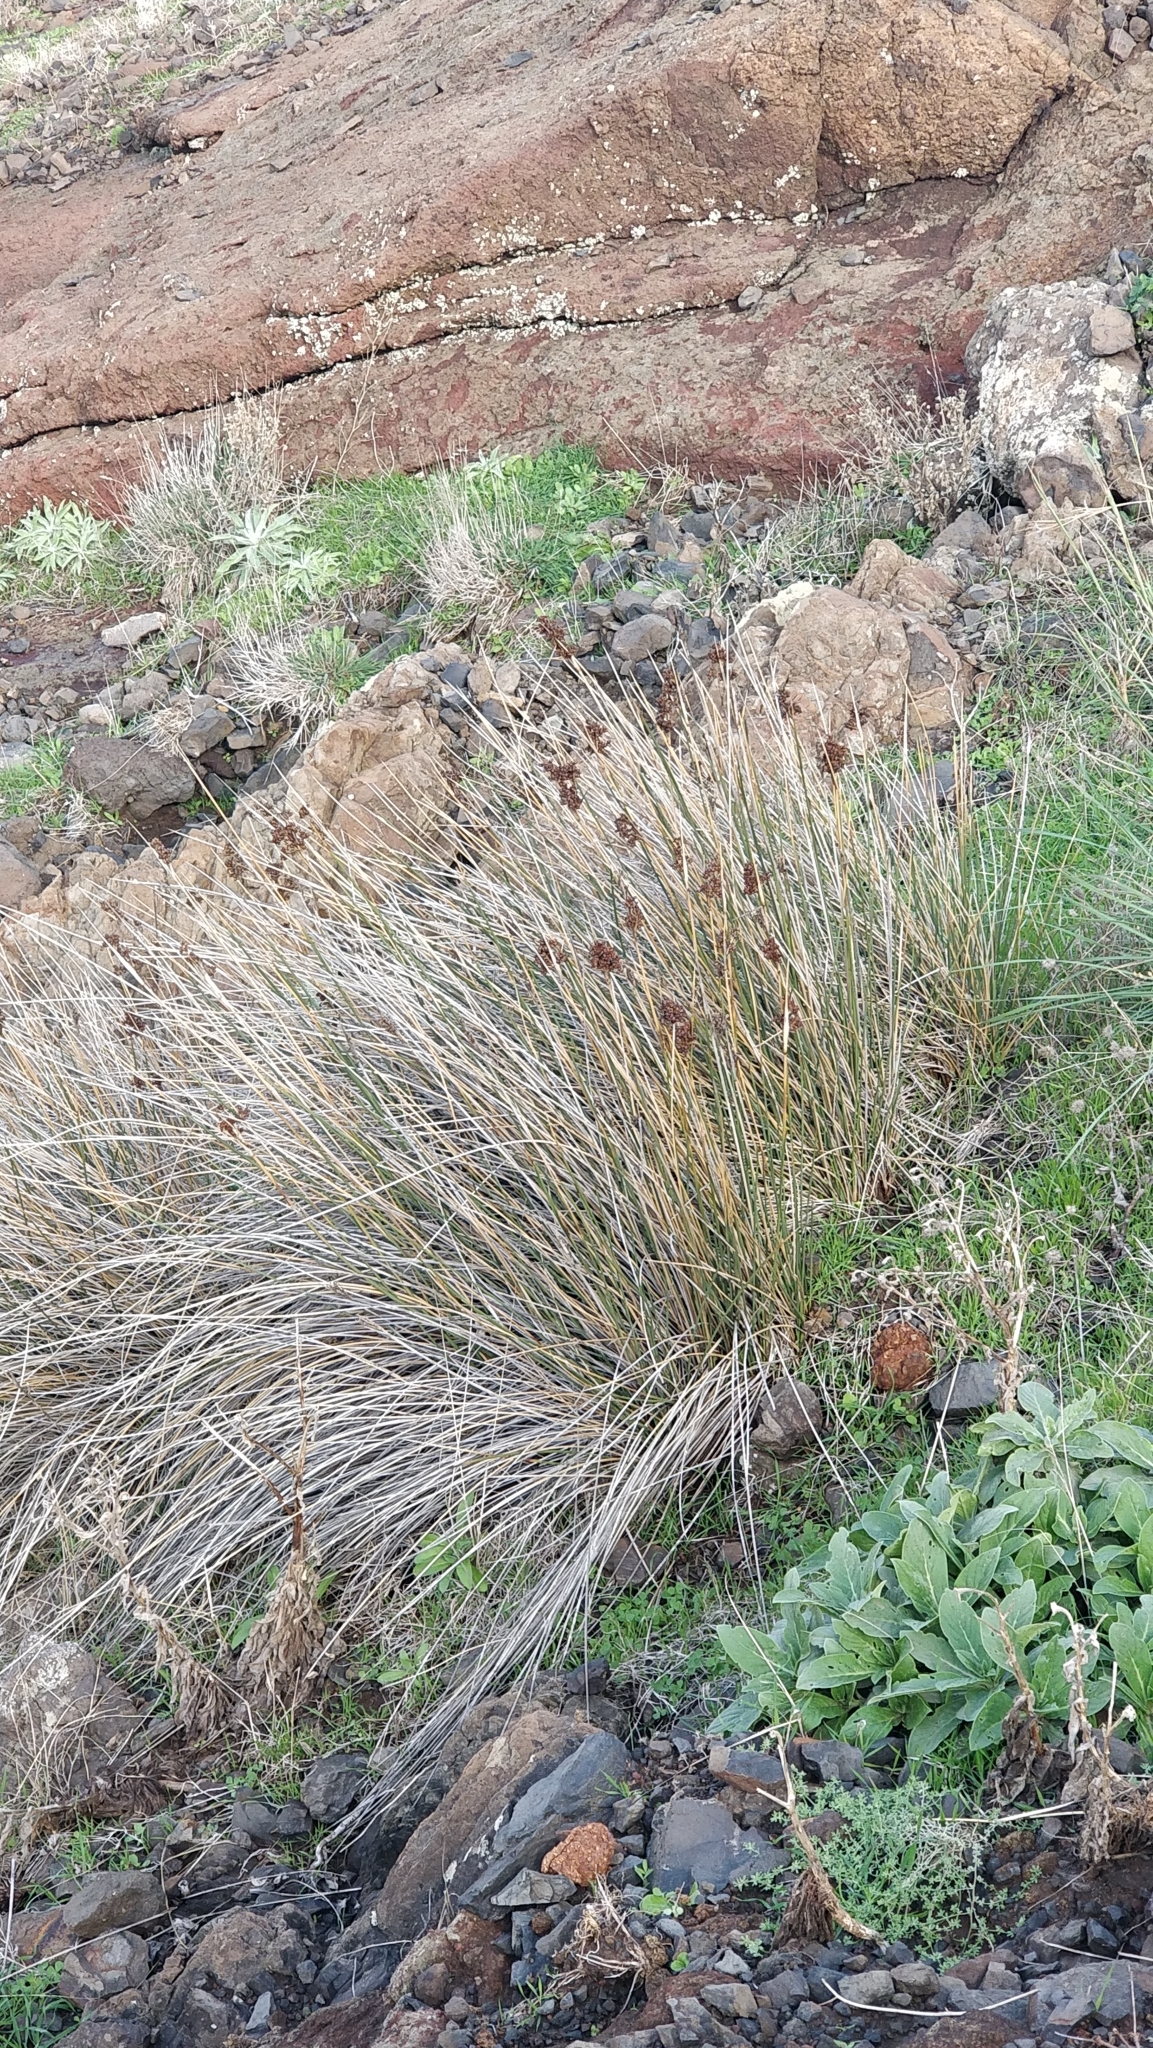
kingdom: Plantae
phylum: Tracheophyta
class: Liliopsida
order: Poales
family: Juncaceae
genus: Juncus
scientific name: Juncus acutus
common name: Sharp rush
